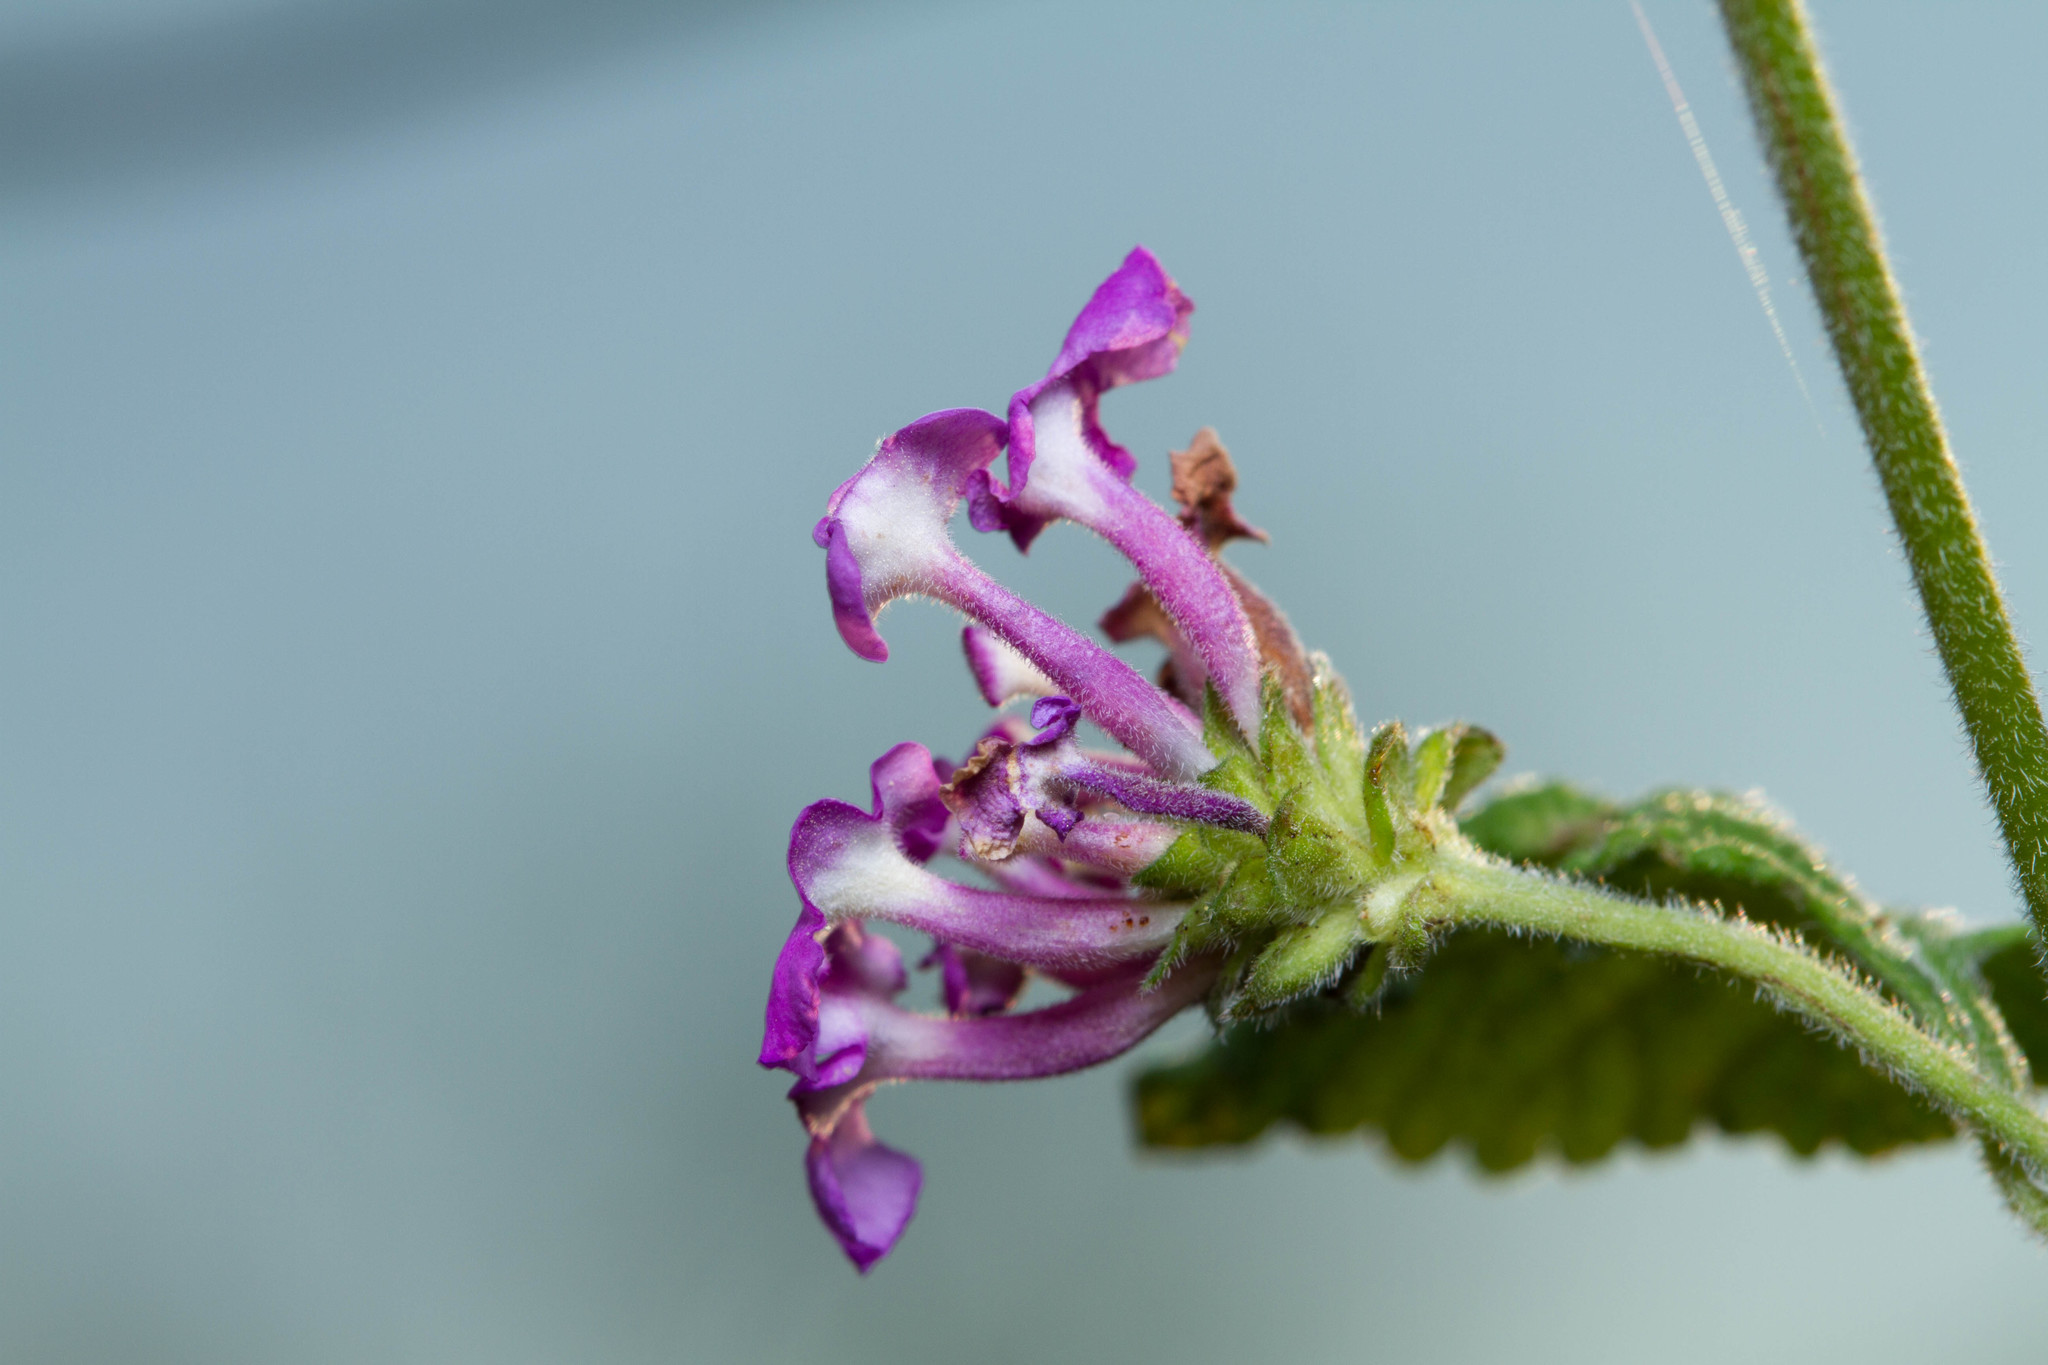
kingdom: Plantae
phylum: Tracheophyta
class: Magnoliopsida
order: Lamiales
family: Verbenaceae
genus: Lantana
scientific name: Lantana montevidensis
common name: Trailing shrubverbena
